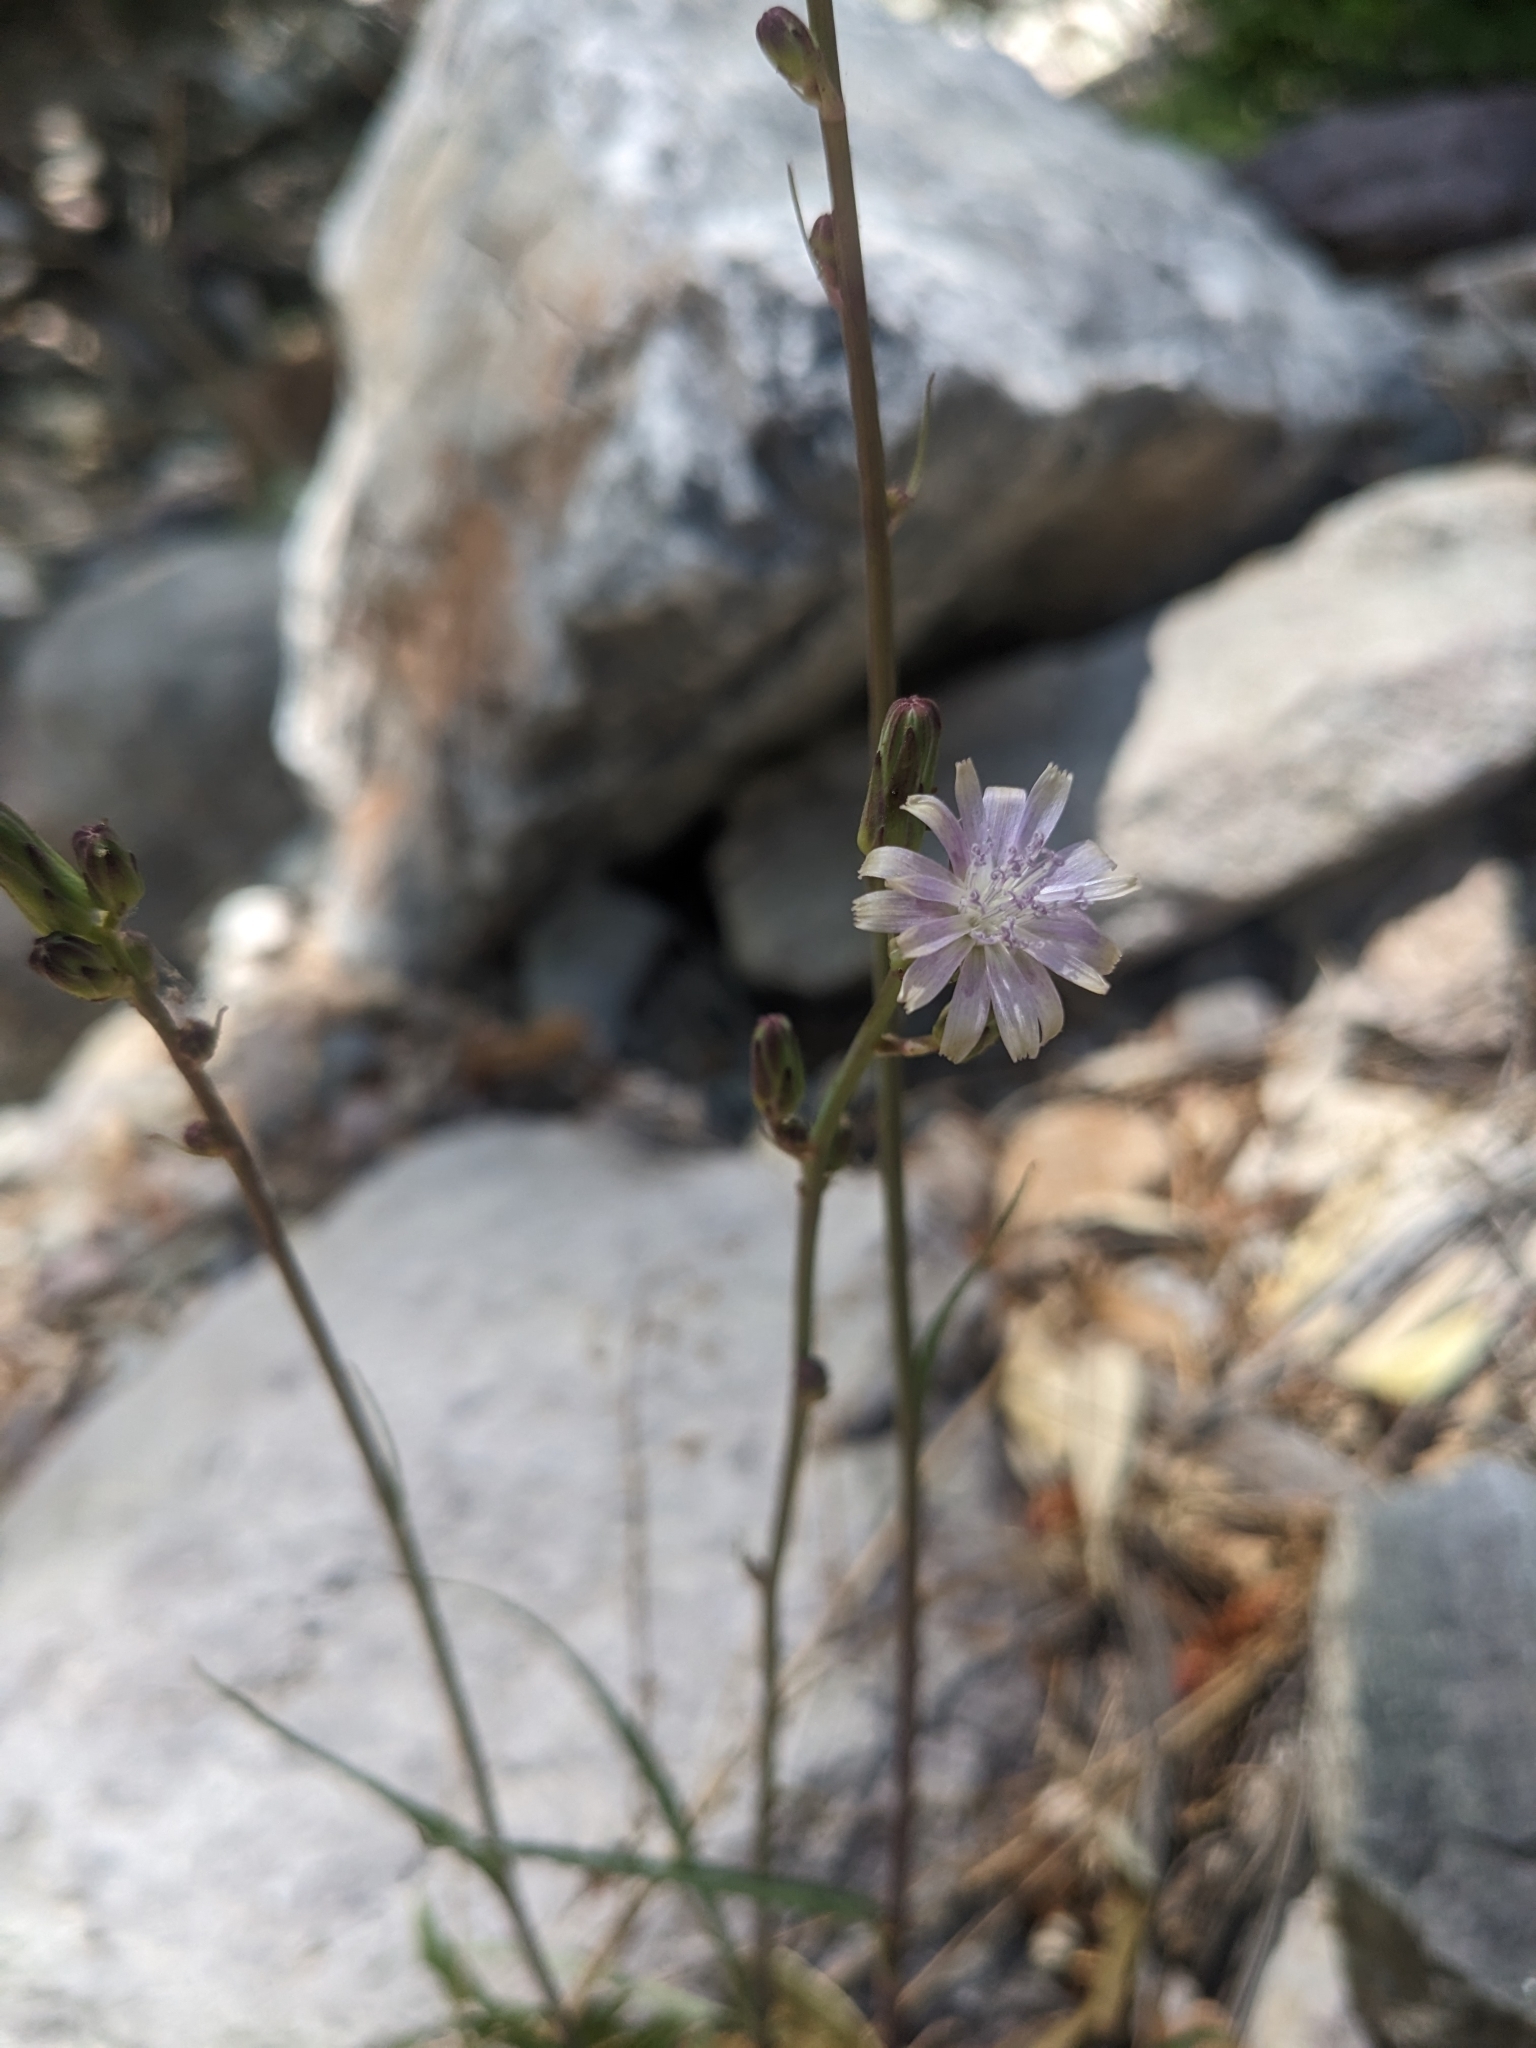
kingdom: Plantae
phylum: Tracheophyta
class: Magnoliopsida
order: Asterales
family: Asteraceae
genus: Lactuca
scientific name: Lactuca graminifolia
